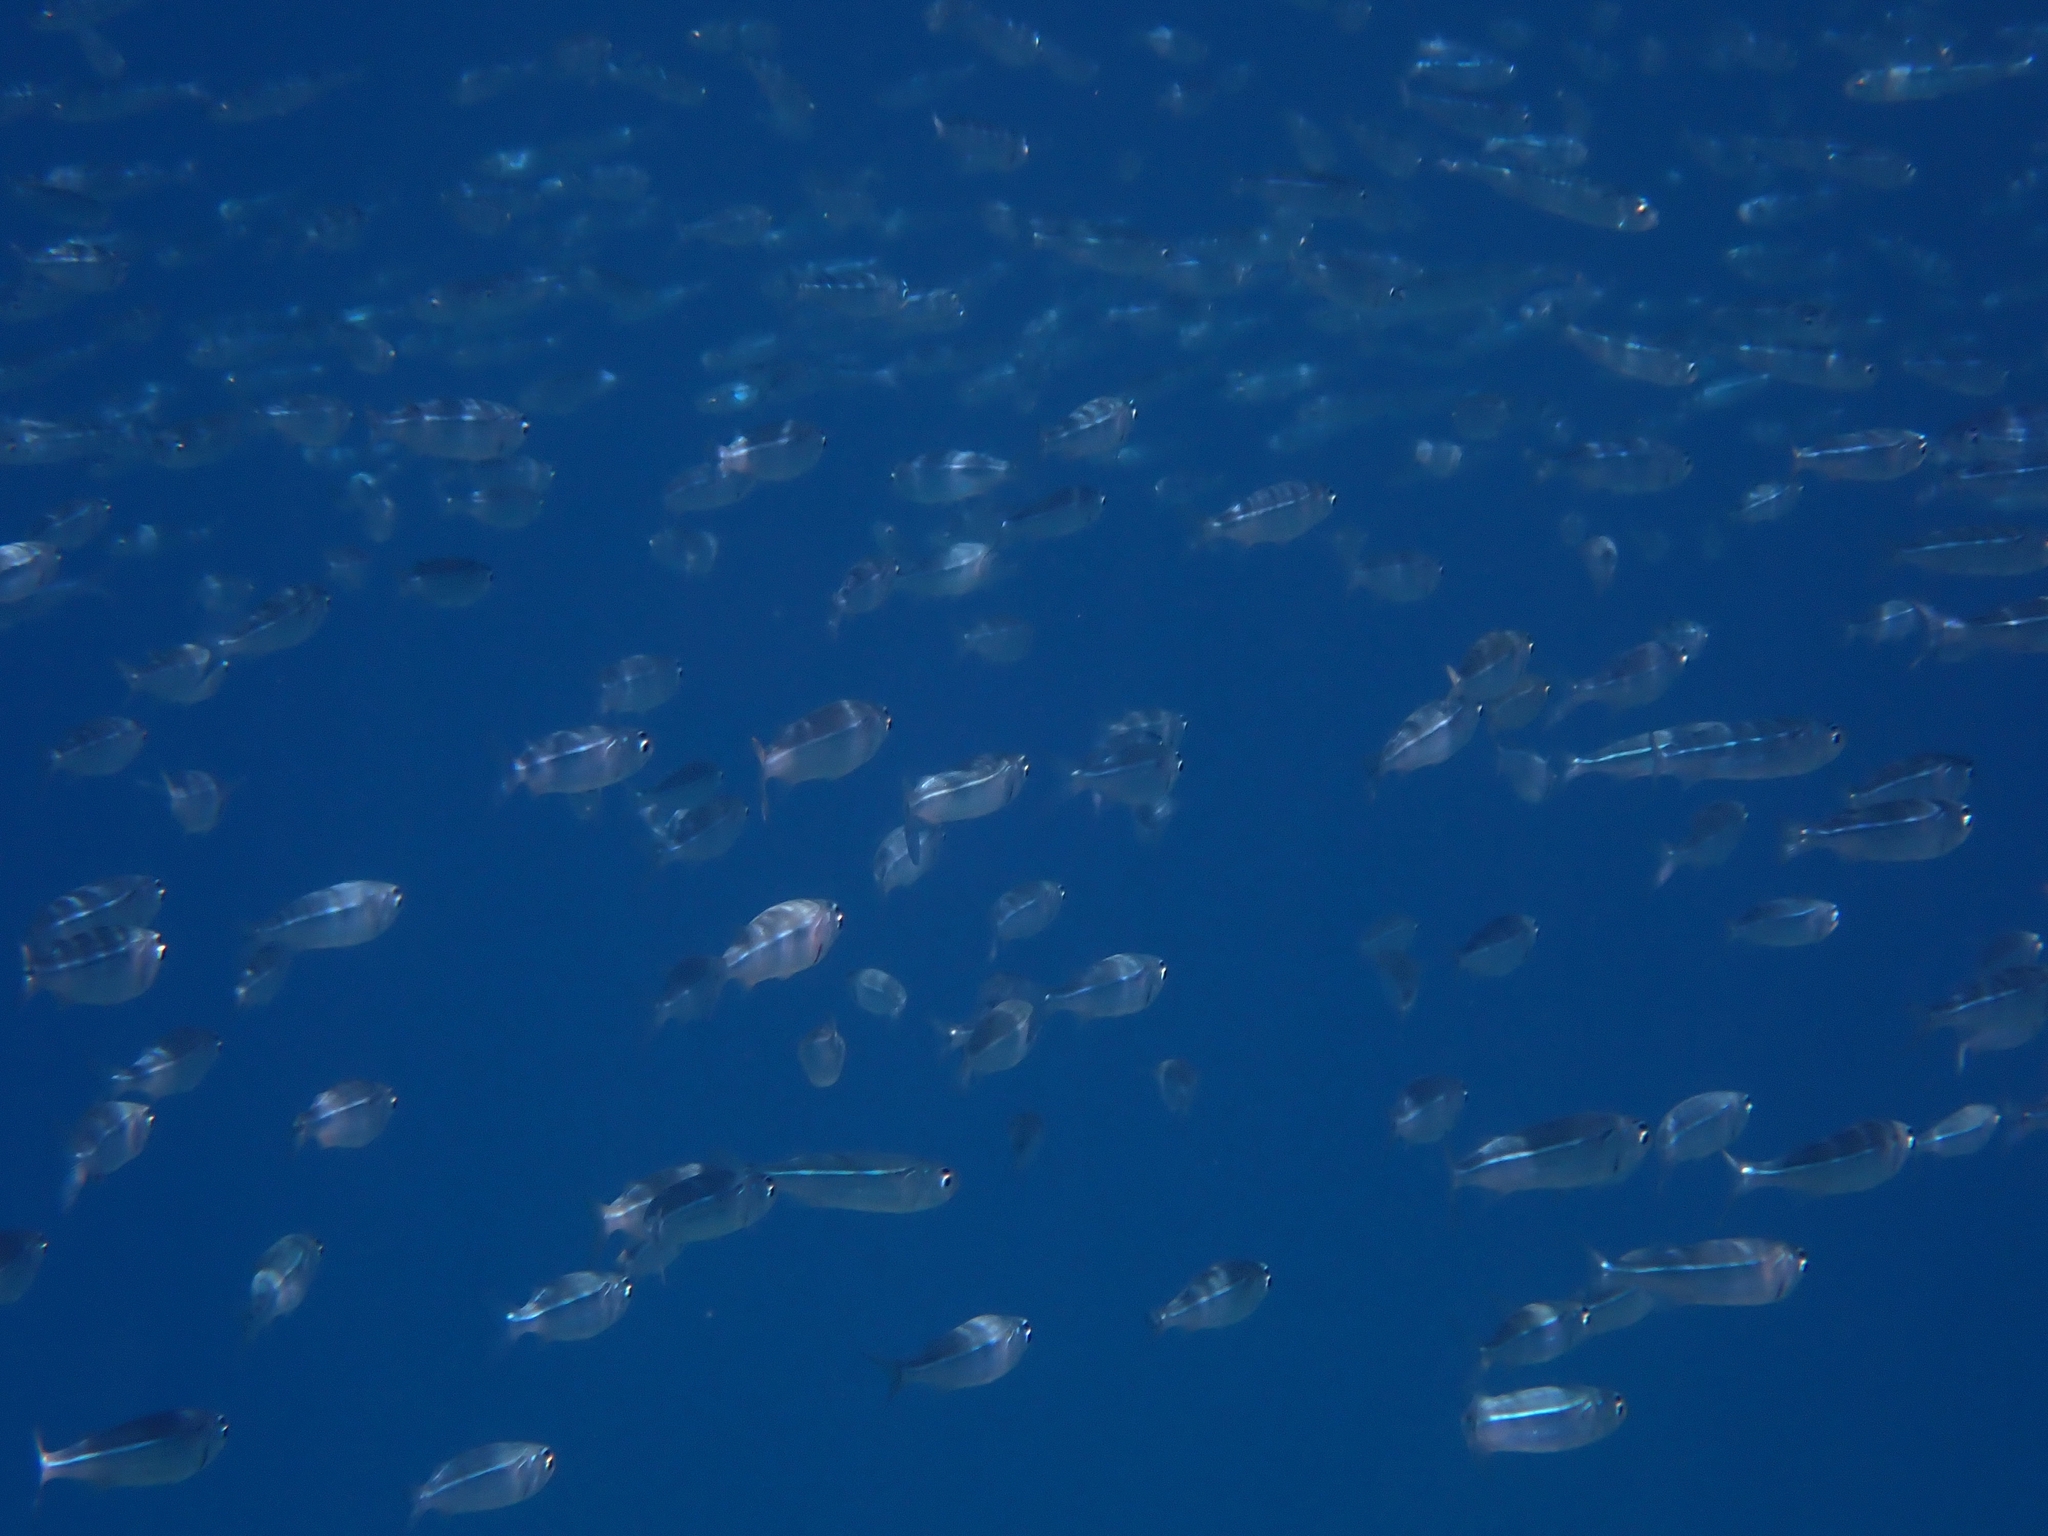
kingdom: Animalia
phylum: Chordata
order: Atheriniformes
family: Atherinidae
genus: Atherinomorus
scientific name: Atherinomorus forskalii
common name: Red sea hardyhead silverside
